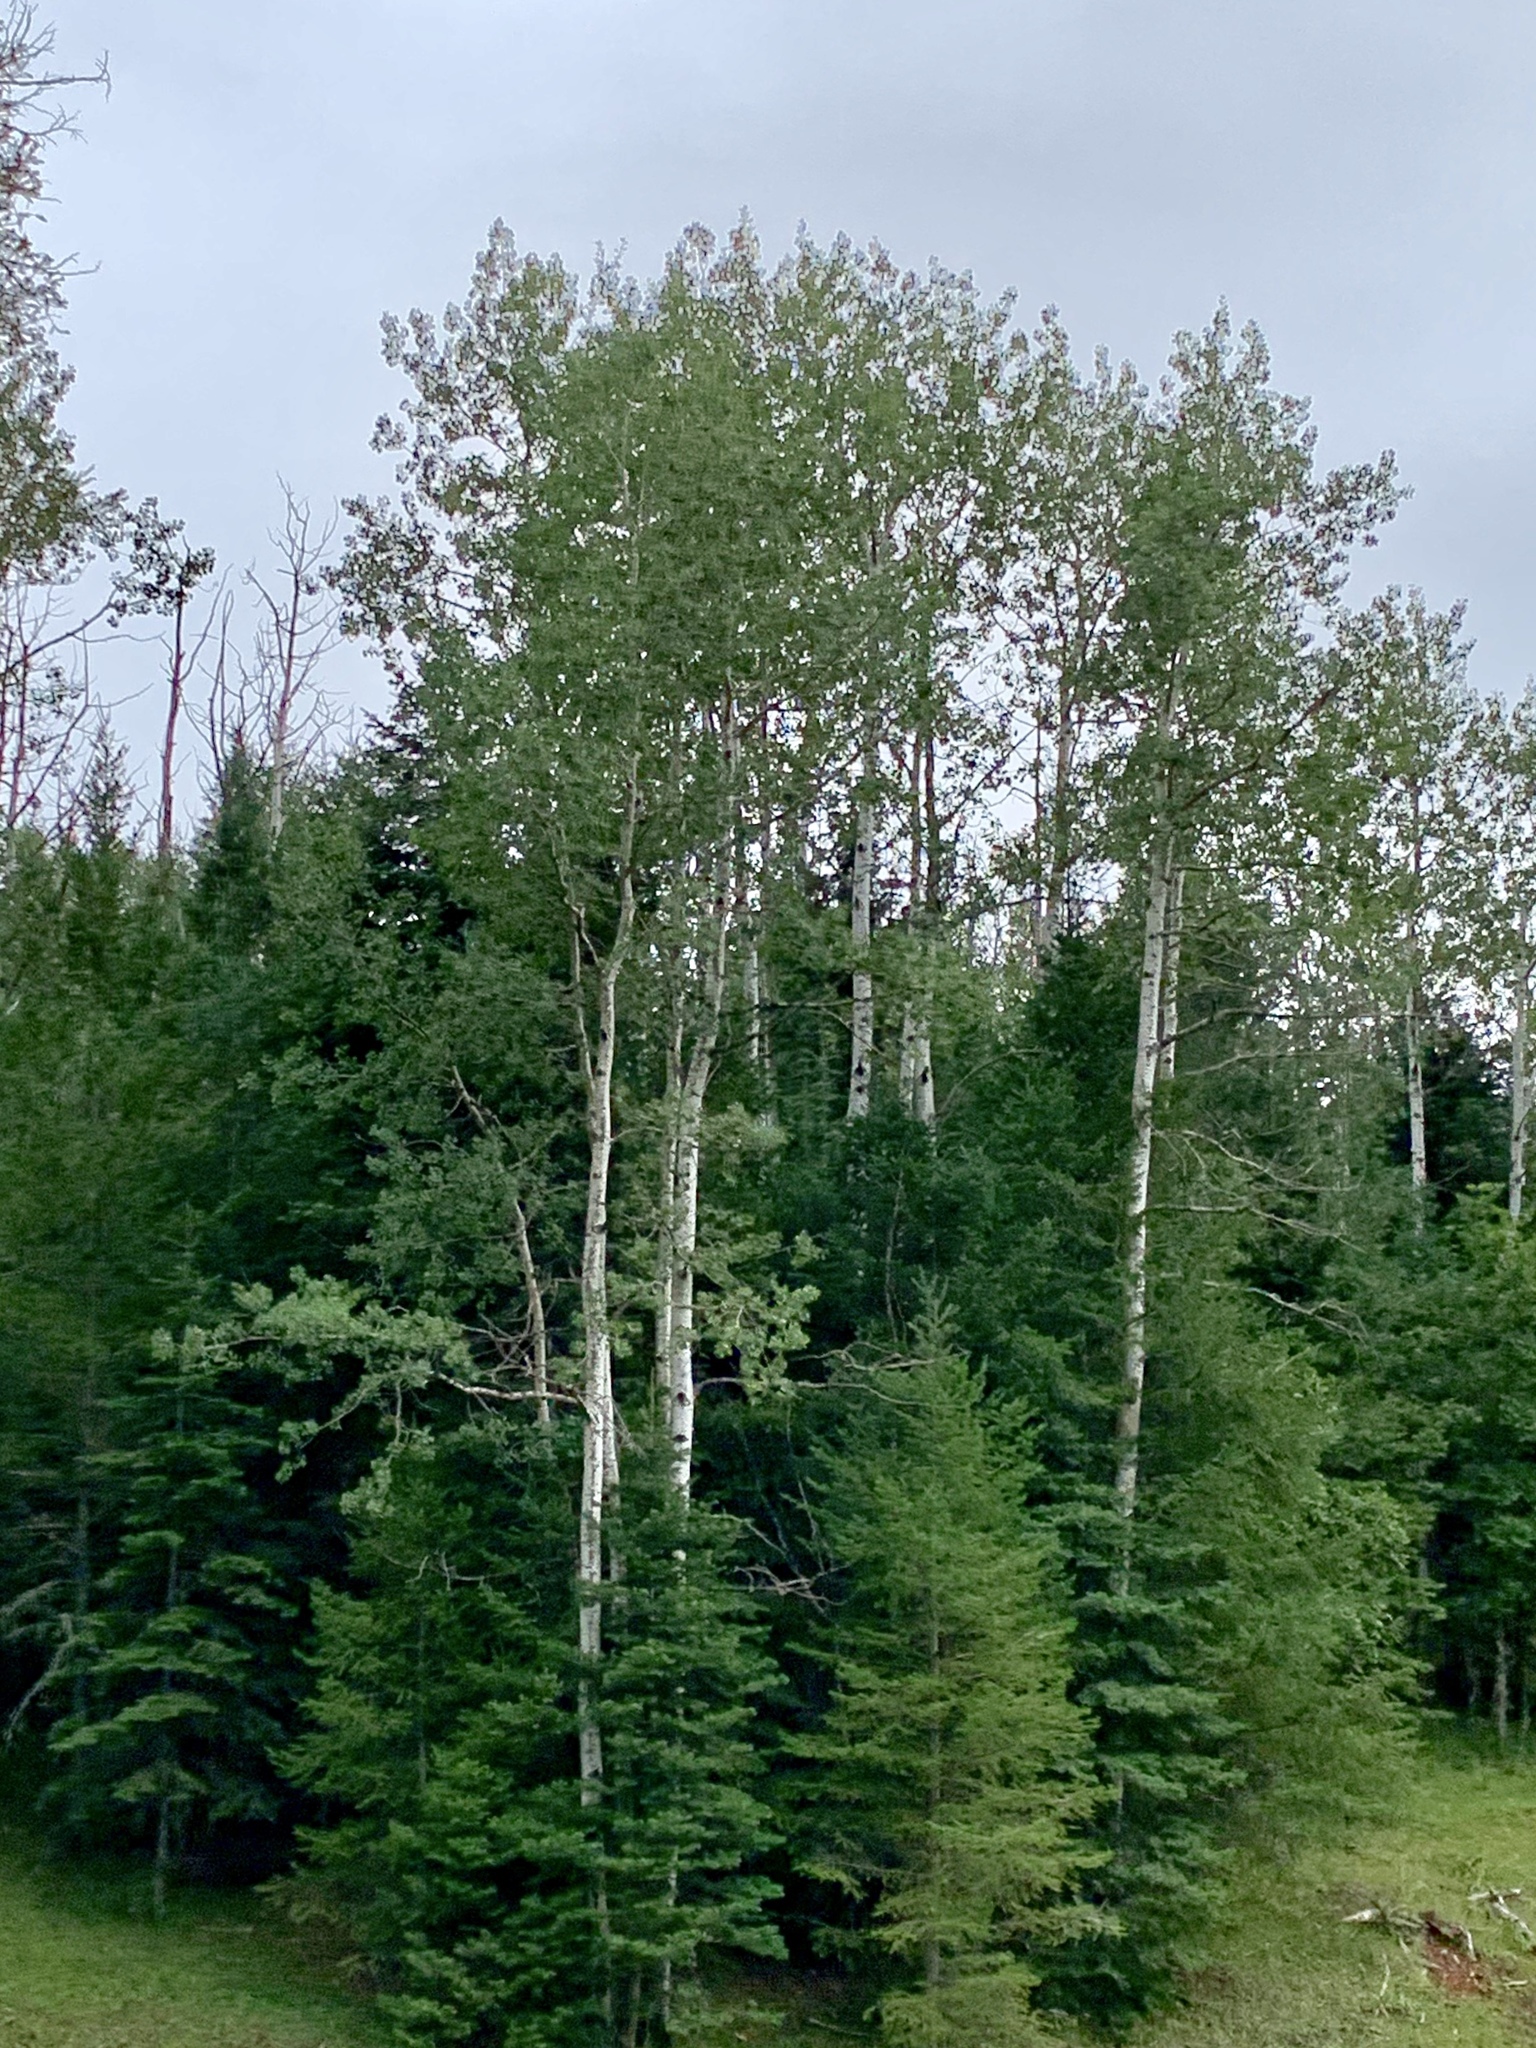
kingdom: Plantae
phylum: Tracheophyta
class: Magnoliopsida
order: Malpighiales
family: Salicaceae
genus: Populus
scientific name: Populus tremuloides
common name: Quaking aspen
